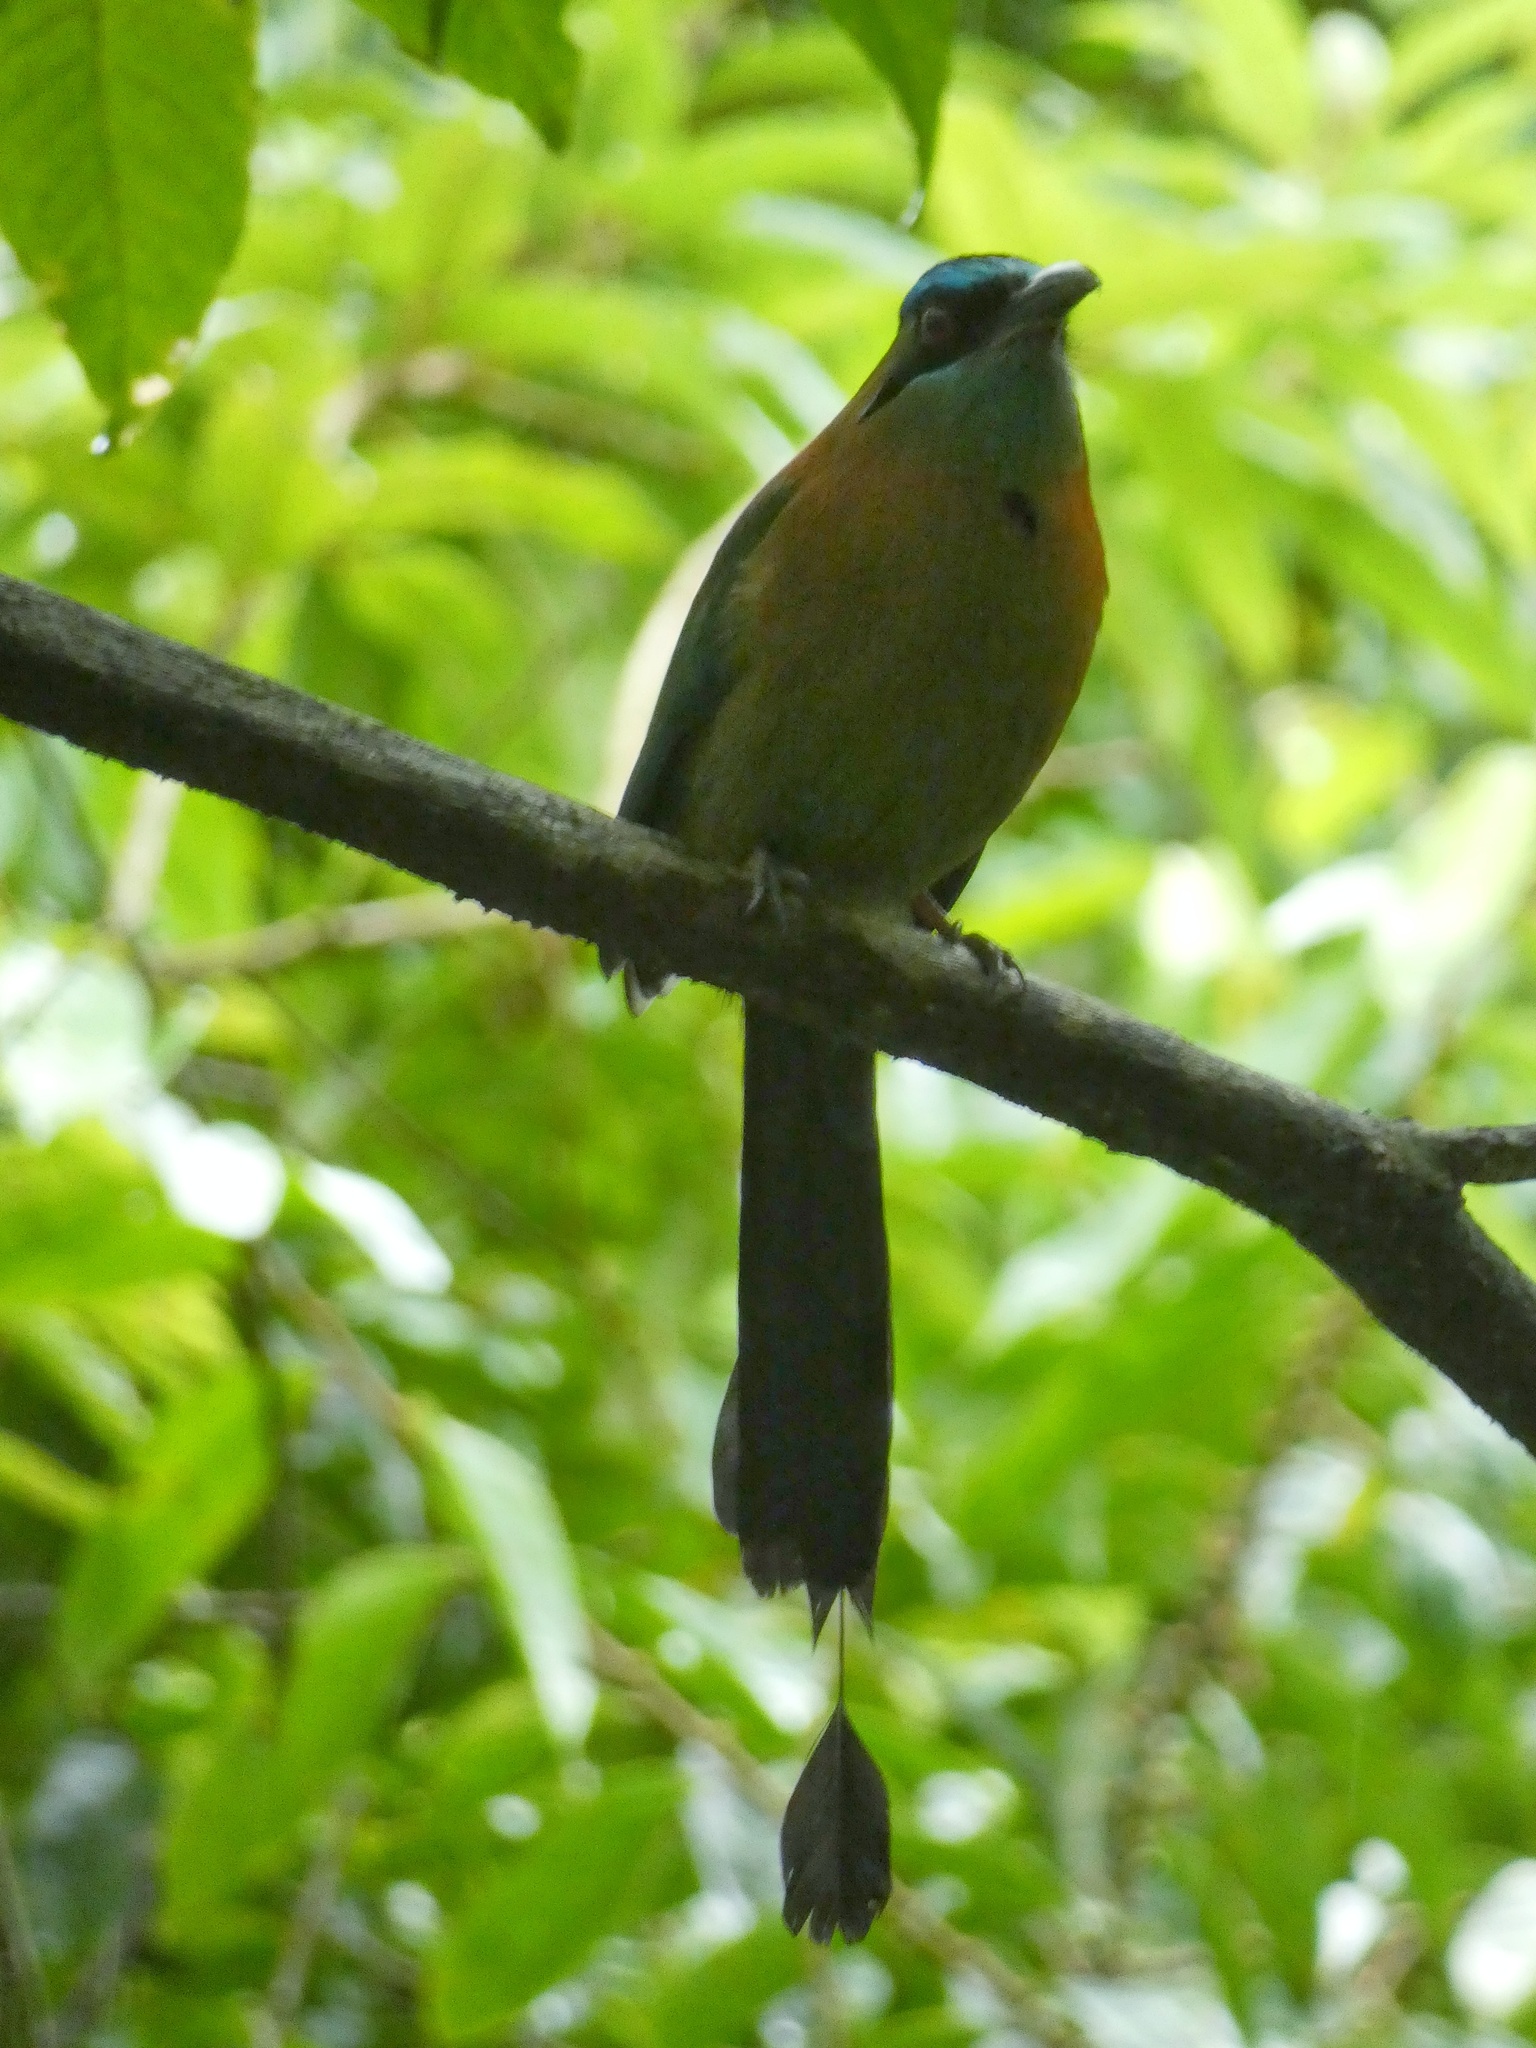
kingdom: Animalia
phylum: Chordata
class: Aves
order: Coraciiformes
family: Momotidae
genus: Momotus
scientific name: Momotus lessonii
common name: Lesson's motmot
